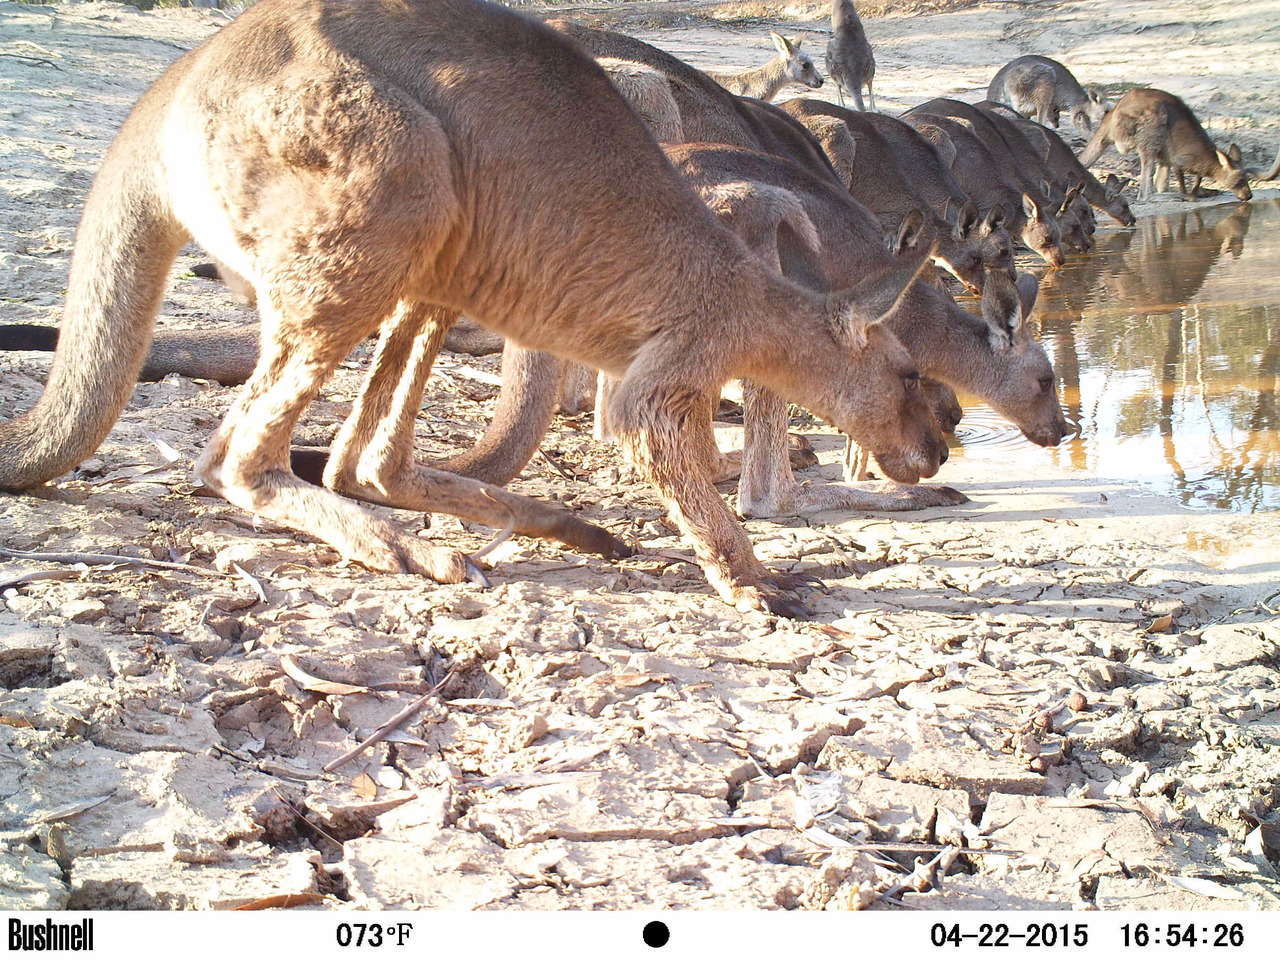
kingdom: Animalia
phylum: Chordata
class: Mammalia
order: Diprotodontia
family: Macropodidae
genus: Macropus
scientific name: Macropus giganteus
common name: Eastern grey kangaroo
